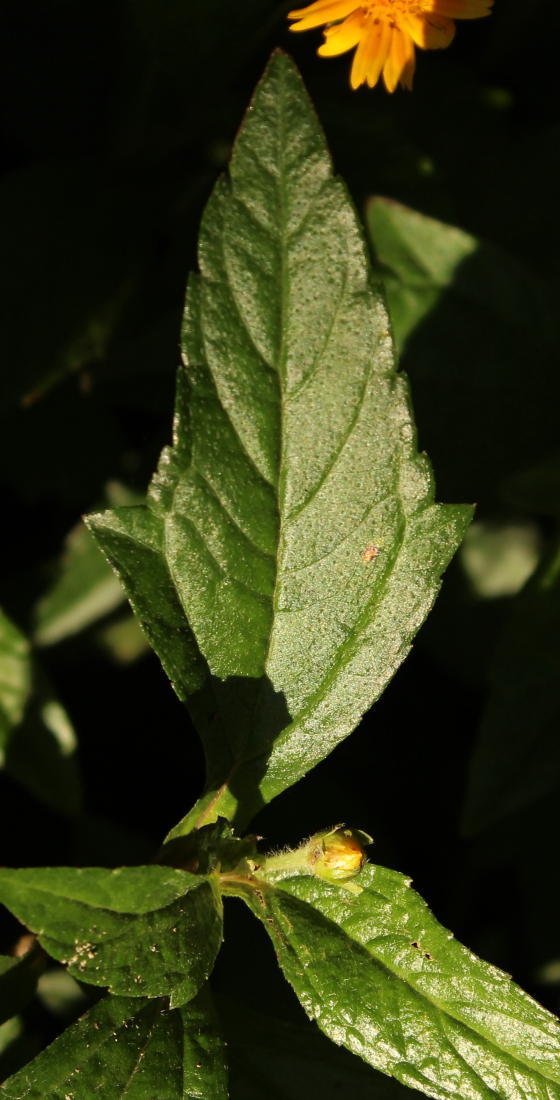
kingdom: Plantae
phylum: Tracheophyta
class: Magnoliopsida
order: Asterales
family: Asteraceae
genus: Sphagneticola
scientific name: Sphagneticola trilobata
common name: Bay biscayne creeping-oxeye
